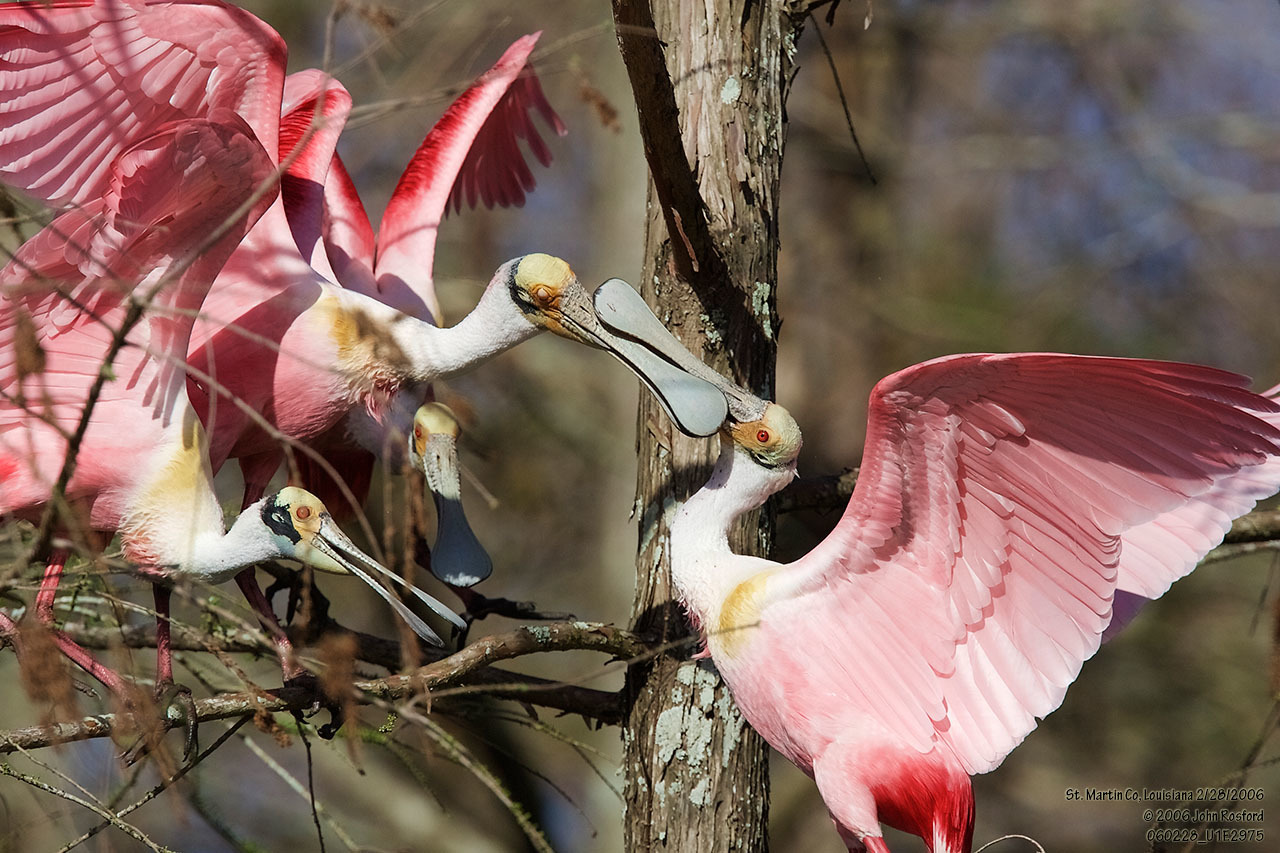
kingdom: Animalia
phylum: Chordata
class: Aves
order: Pelecaniformes
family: Threskiornithidae
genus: Platalea
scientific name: Platalea ajaja
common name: Roseate spoonbill
